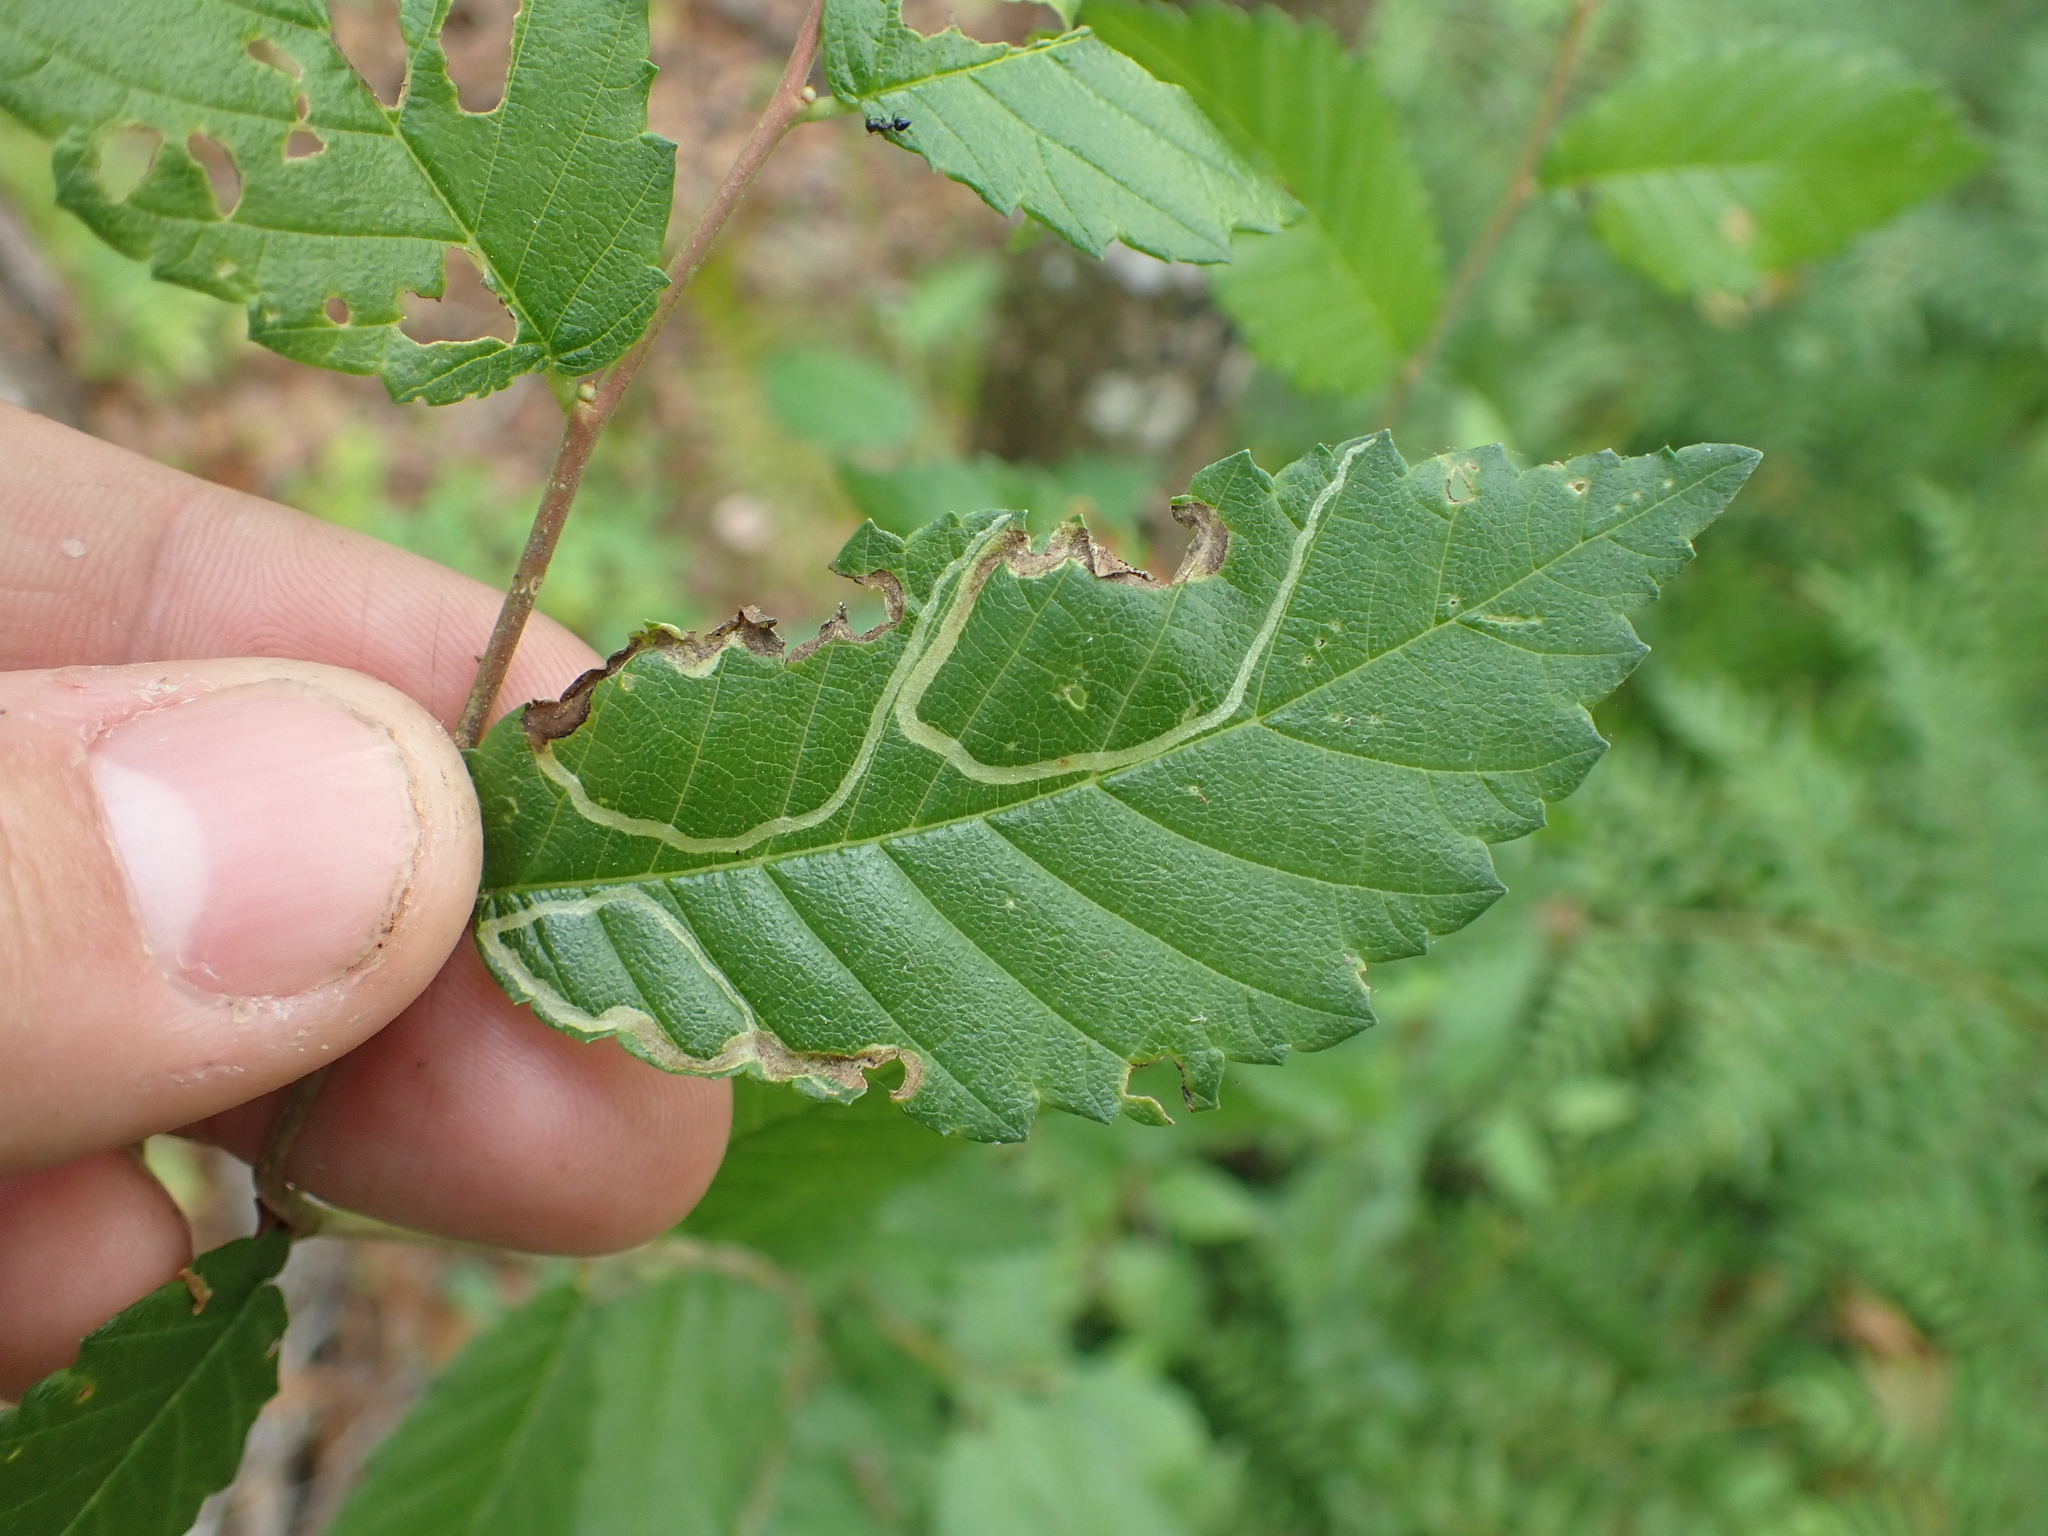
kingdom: Animalia
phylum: Arthropoda
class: Insecta
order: Diptera
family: Agromyzidae
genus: Agromyza
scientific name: Agromyza aristata
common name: Elm agromyzid leafminer
